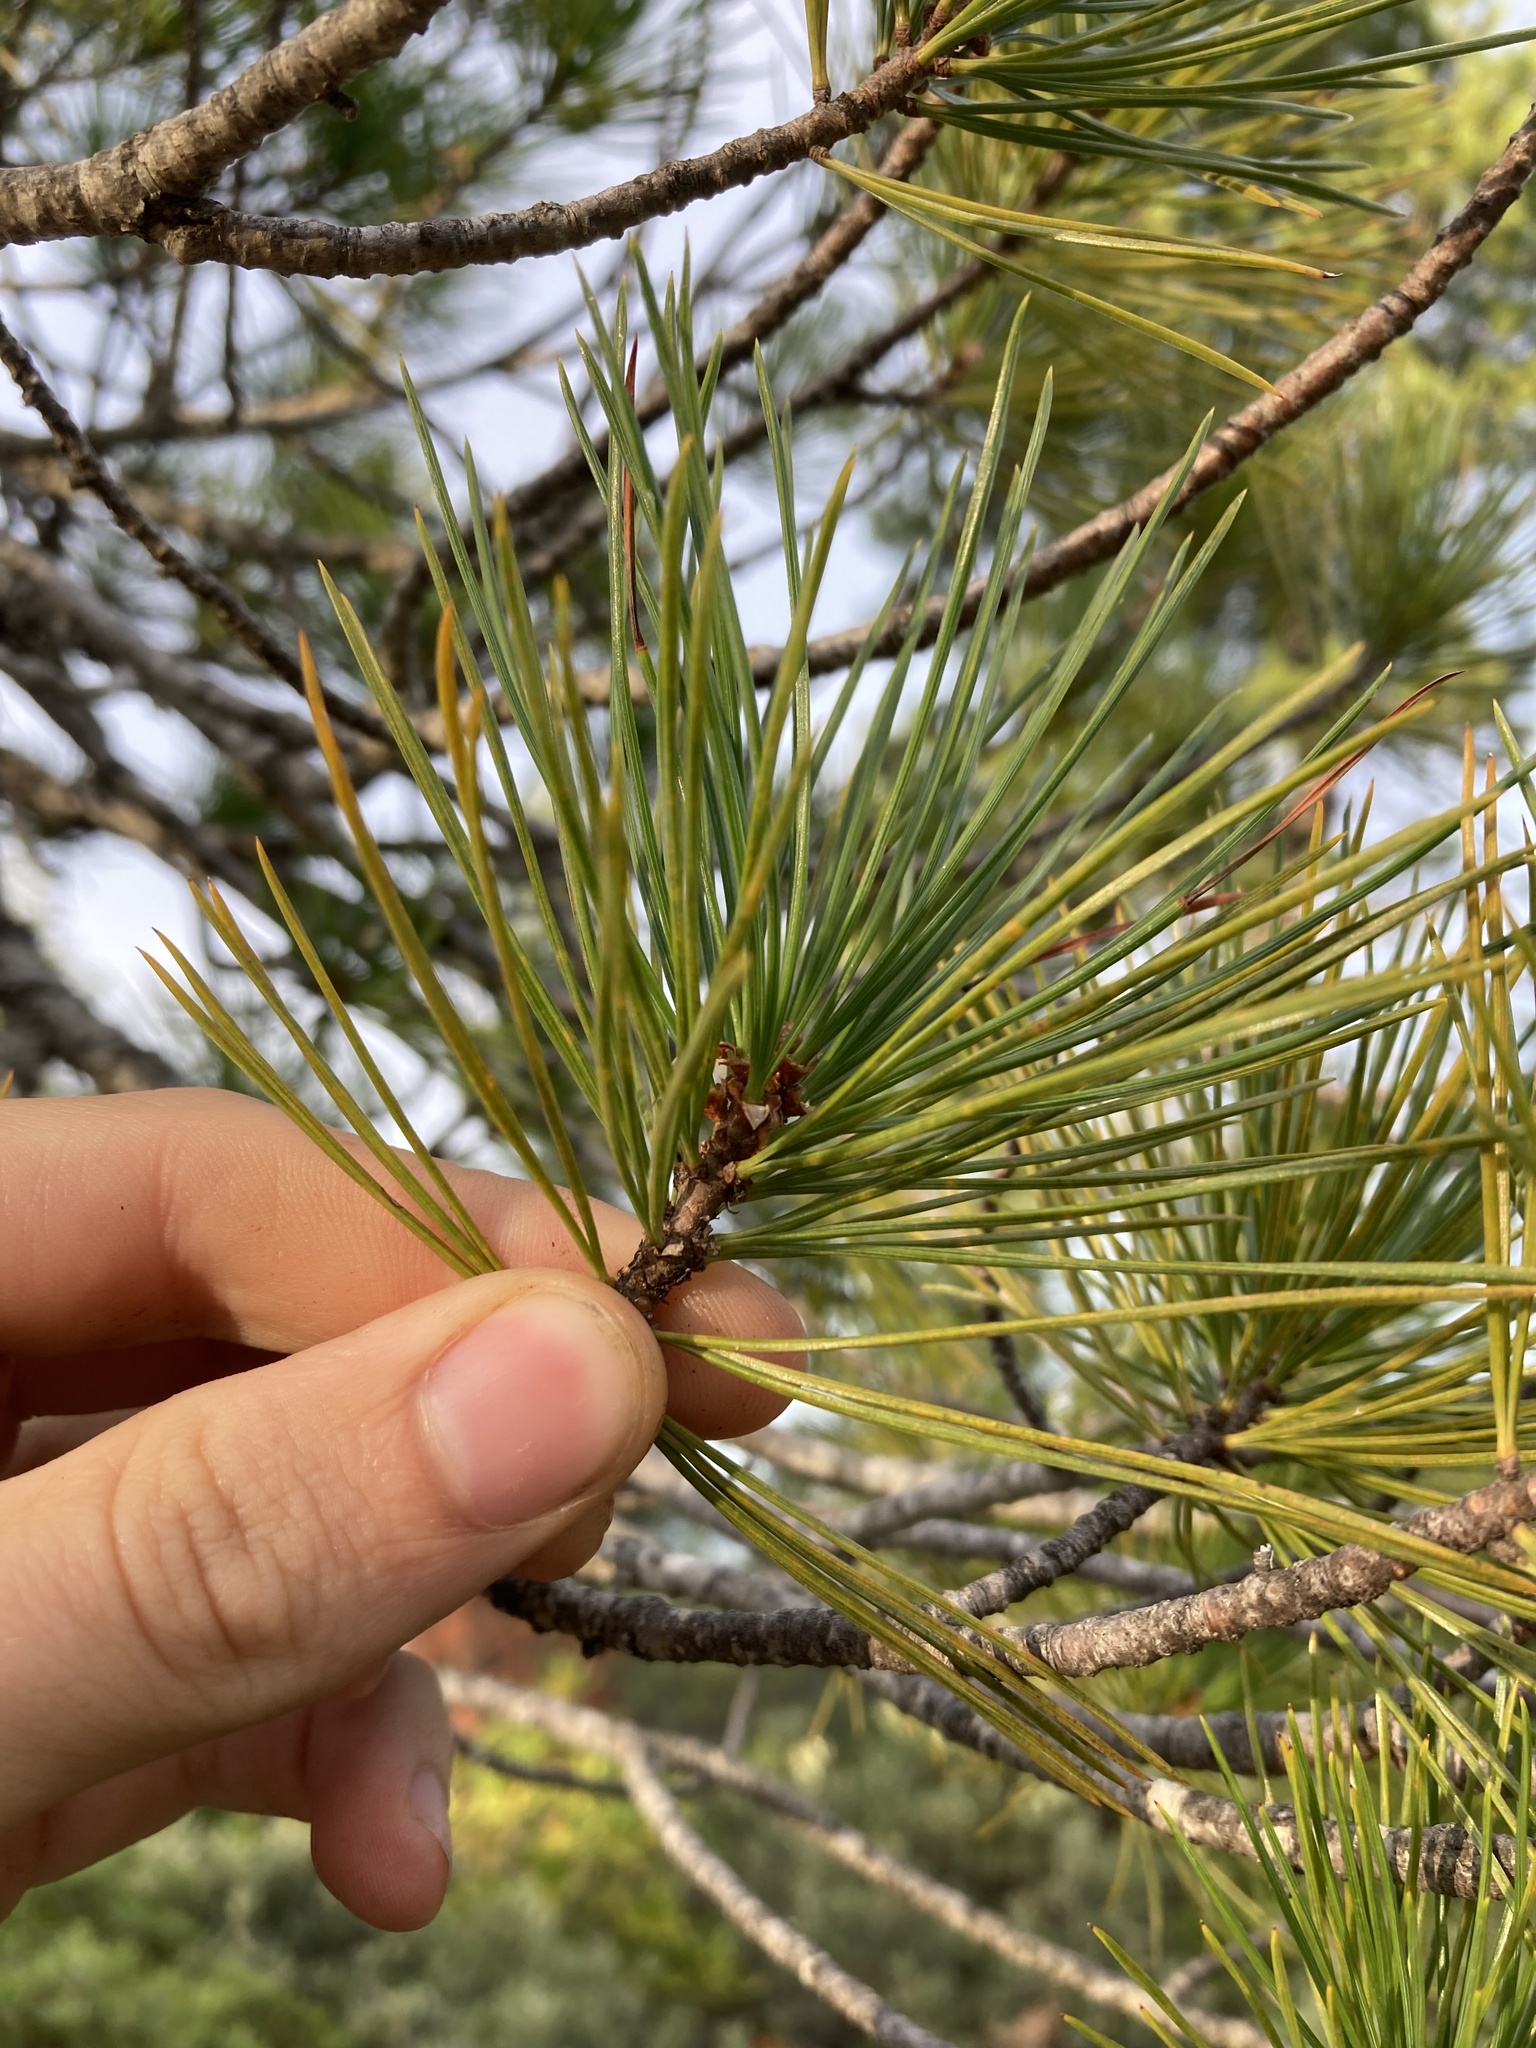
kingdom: Plantae
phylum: Tracheophyta
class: Pinopsida
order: Pinales
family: Pinaceae
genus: Pinus
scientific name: Pinus monticola
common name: Western white pine
